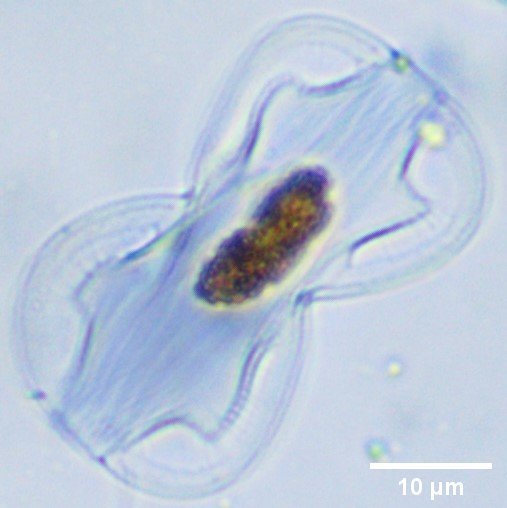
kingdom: Chromista
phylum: Ochrophyta
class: Bacillariophyceae
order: Surirellales
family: Entomoneidaceae
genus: Entomoneis
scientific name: Entomoneis paludosa
